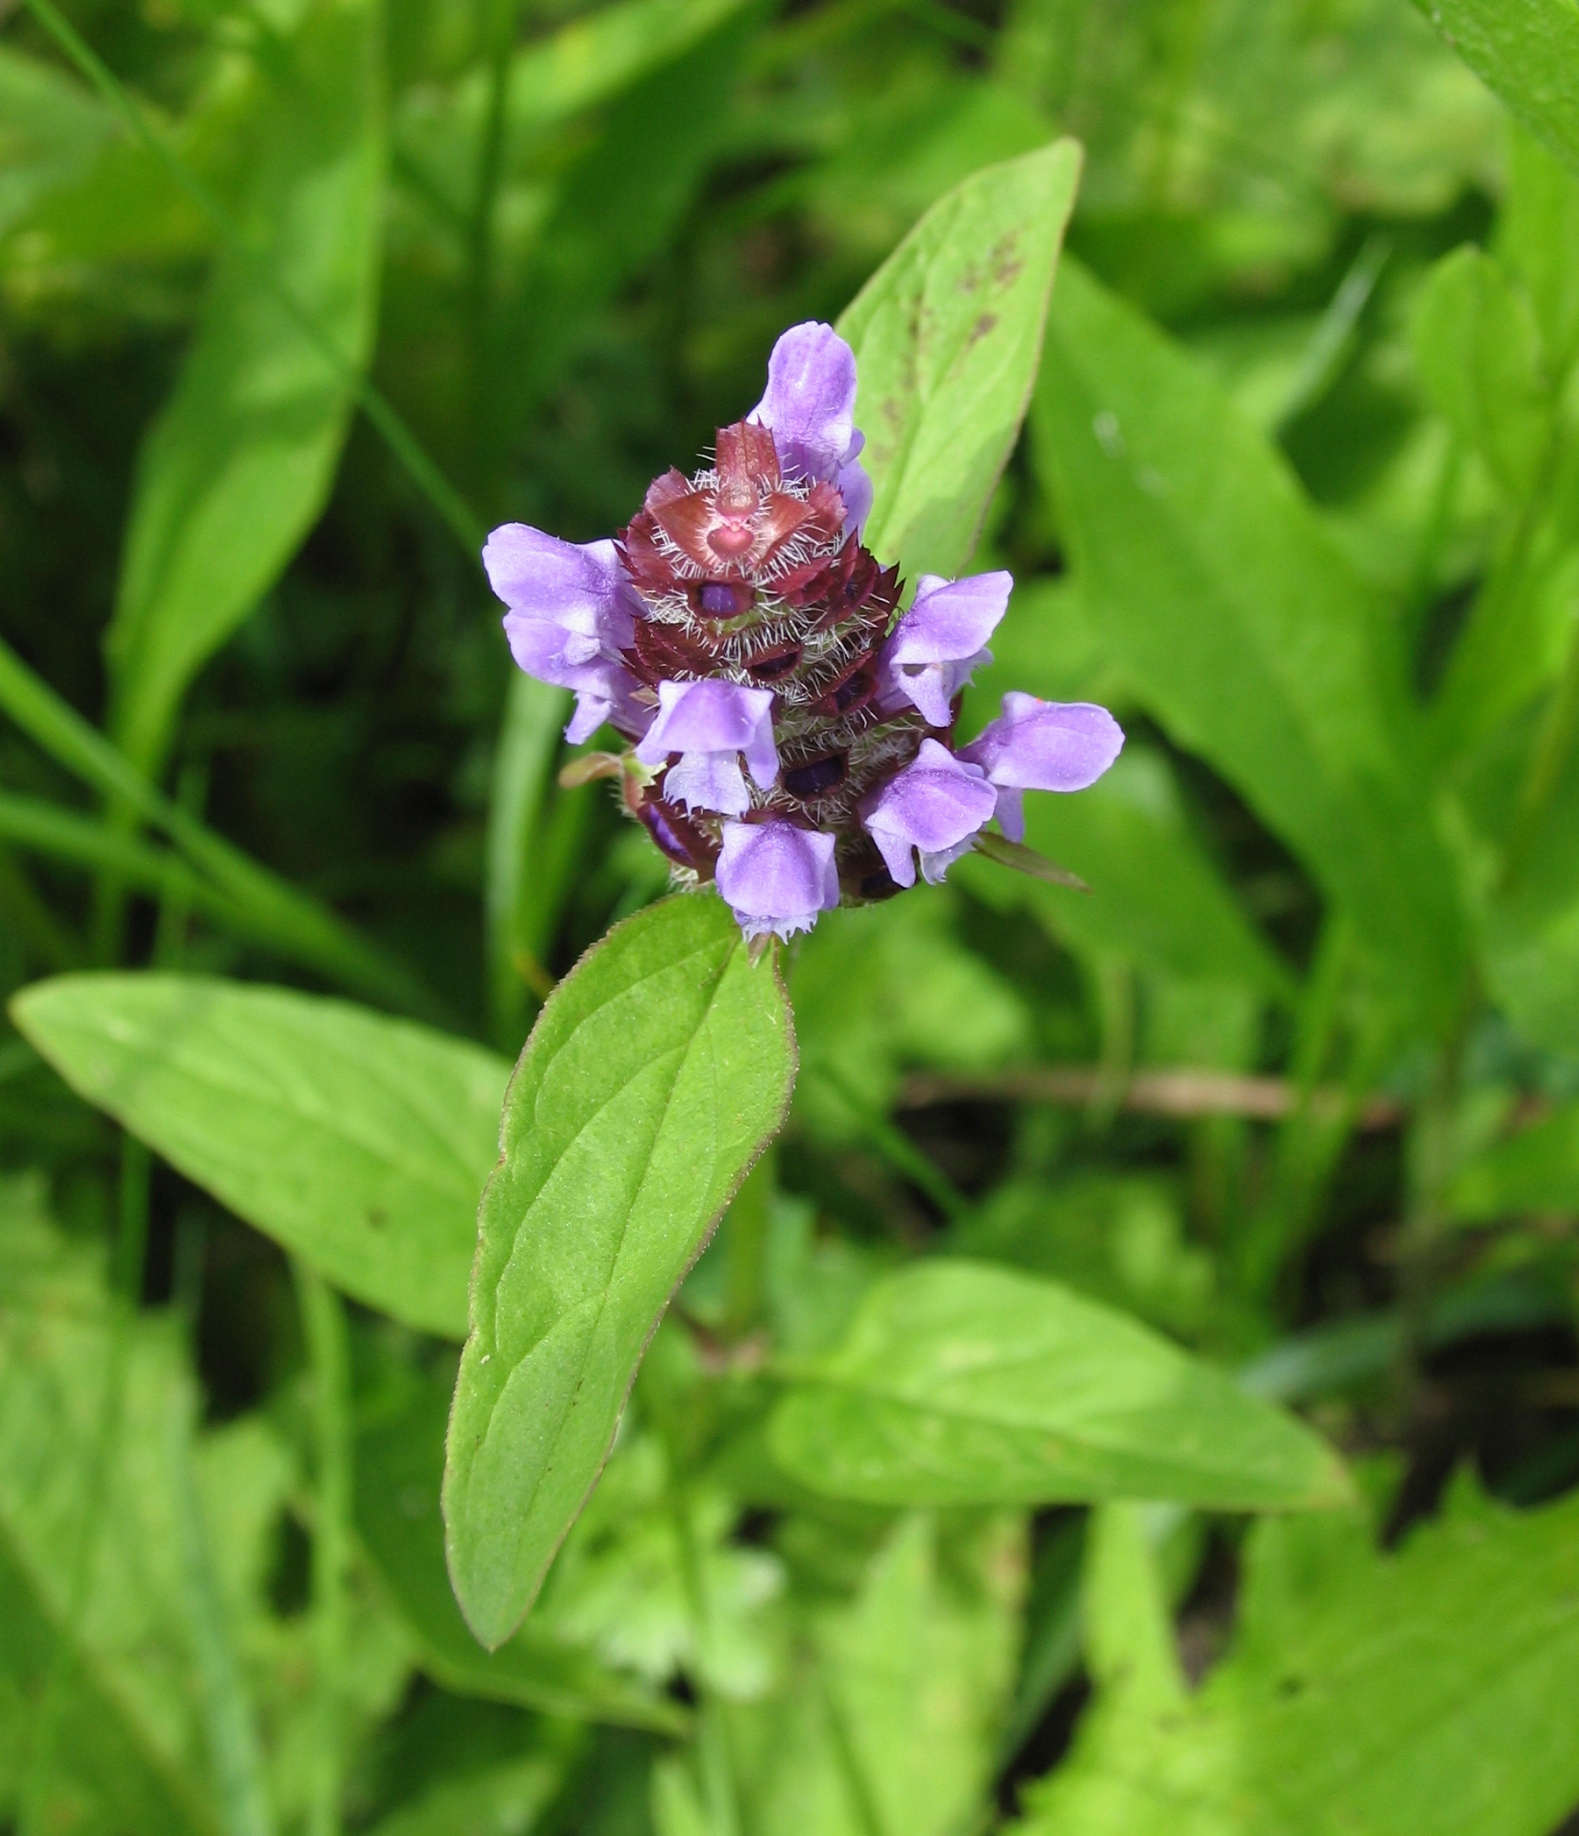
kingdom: Plantae
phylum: Tracheophyta
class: Magnoliopsida
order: Lamiales
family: Lamiaceae
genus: Prunella
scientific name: Prunella vulgaris
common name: Heal-all
